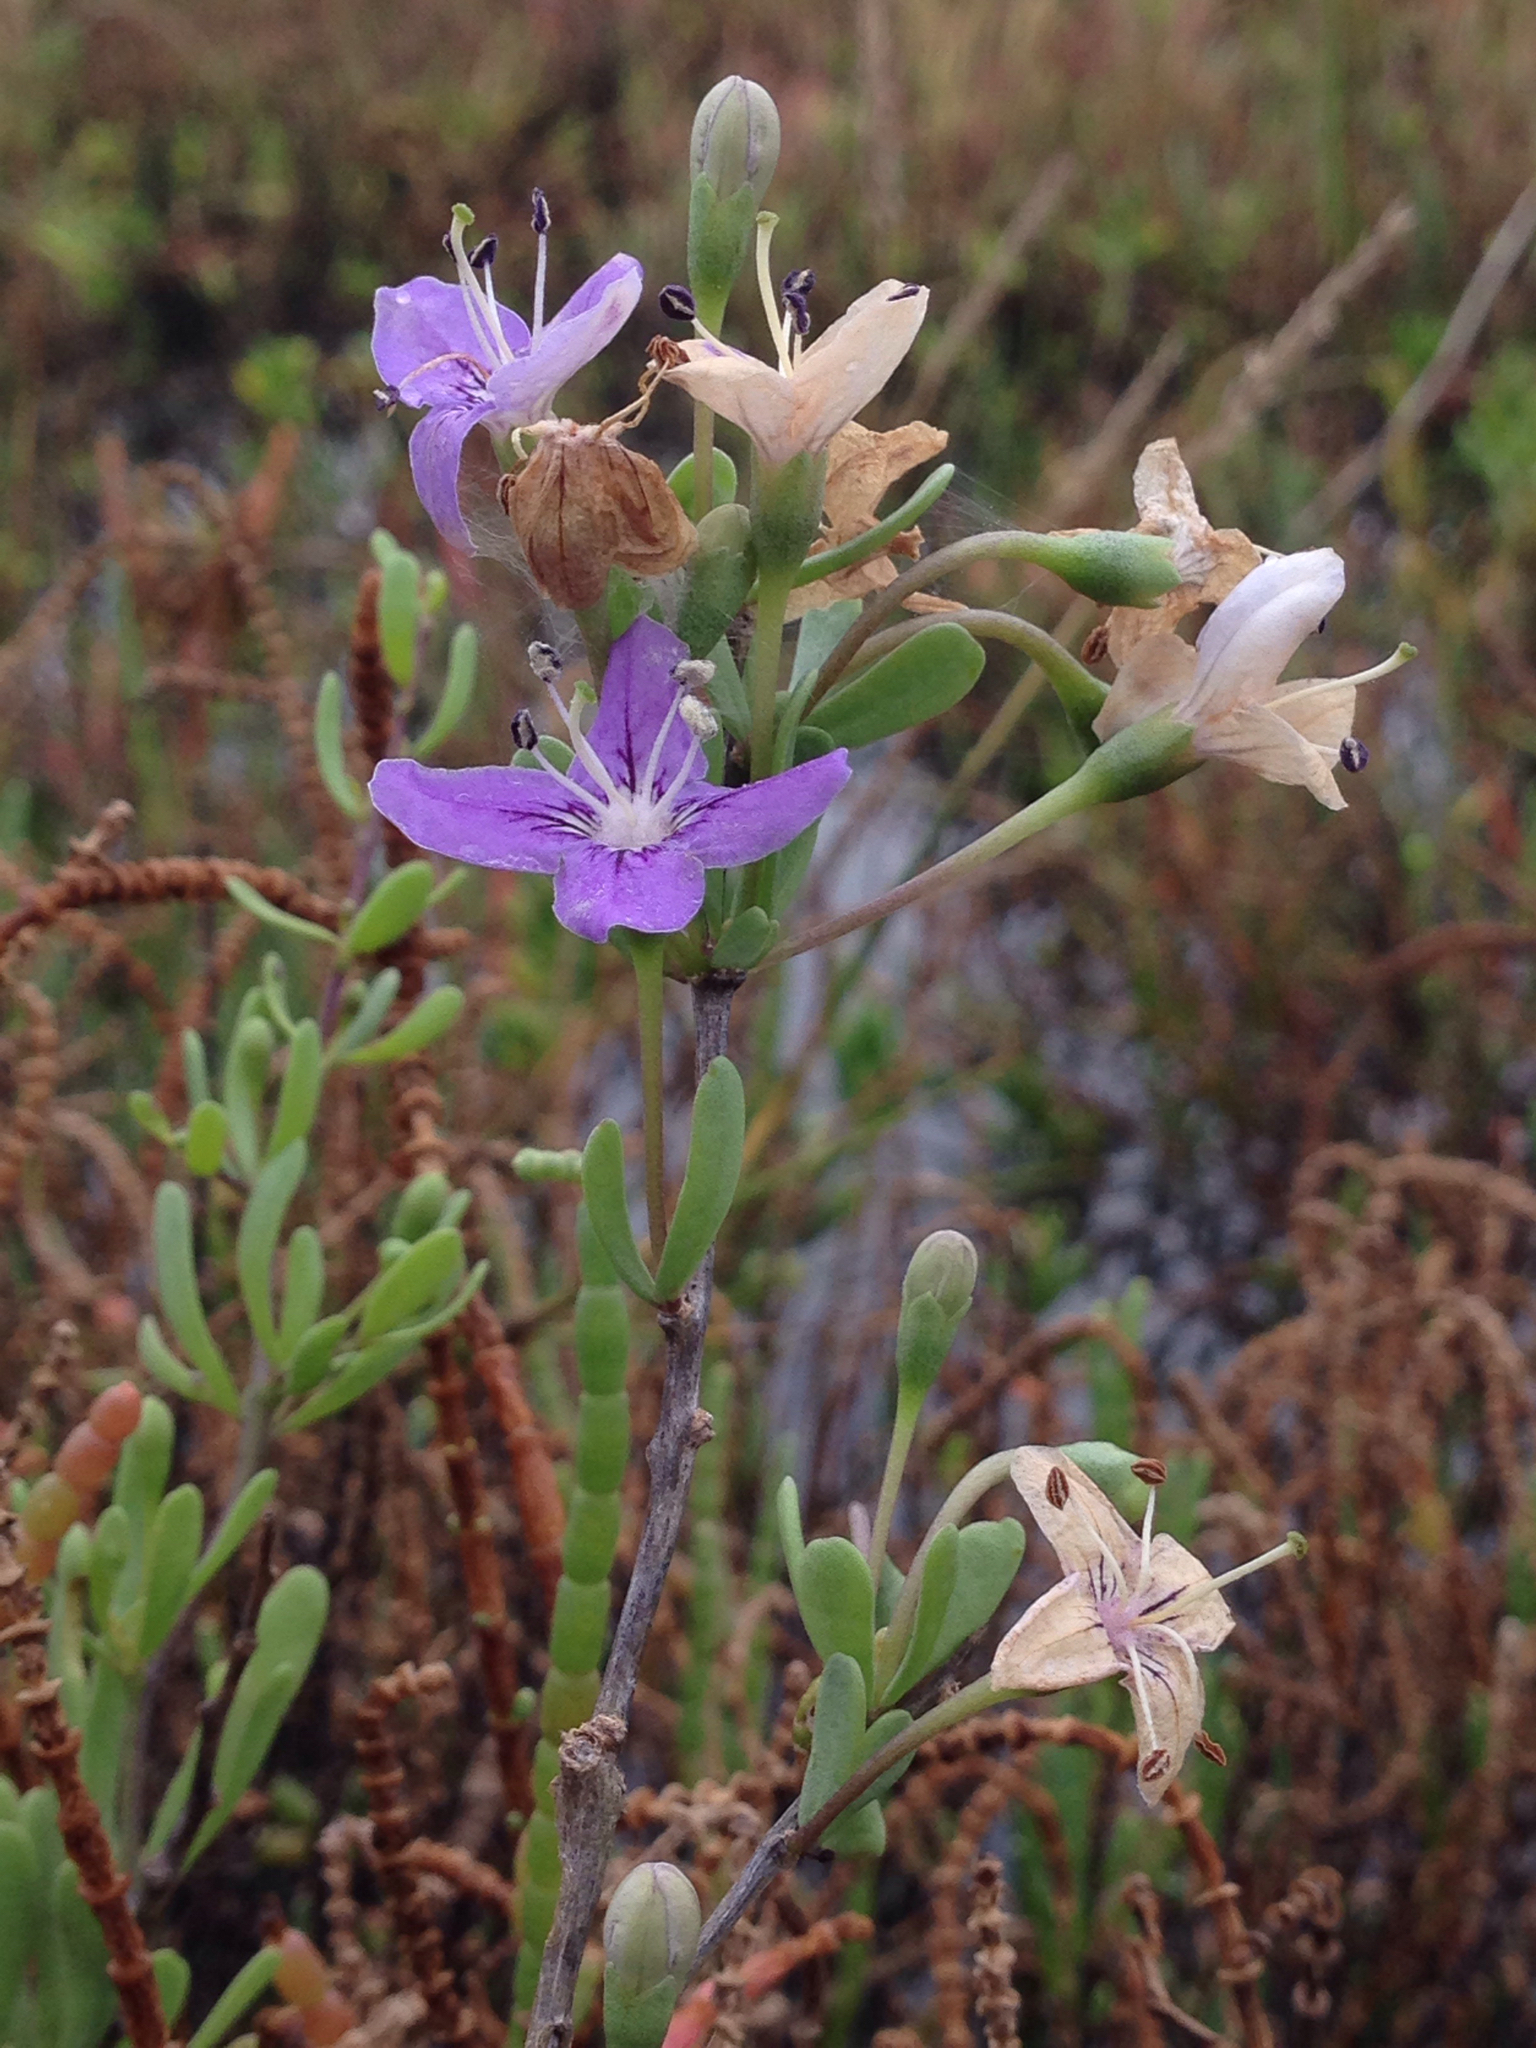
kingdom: Plantae
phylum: Tracheophyta
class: Magnoliopsida
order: Solanales
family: Solanaceae
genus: Lycium
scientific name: Lycium carolinianum
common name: Christmasberry
